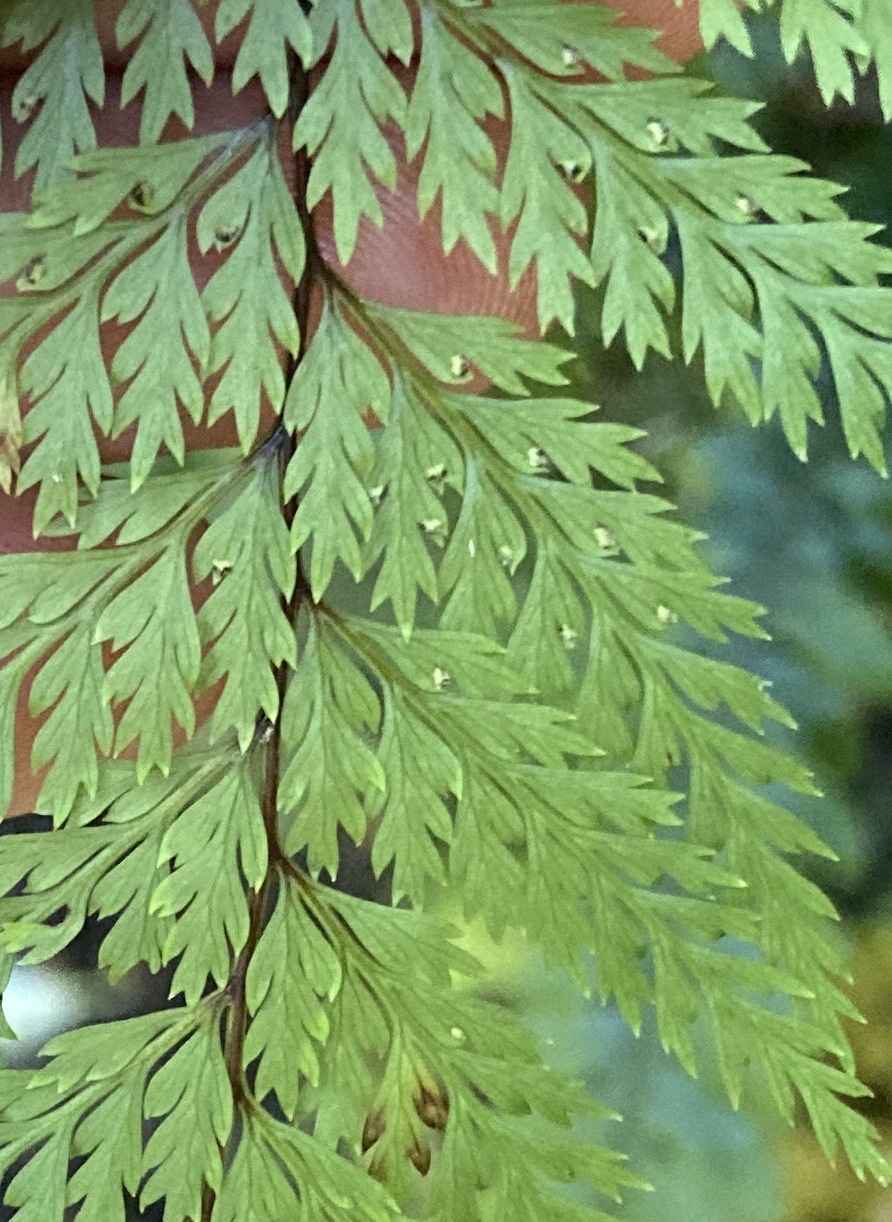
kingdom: Plantae
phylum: Tracheophyta
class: Polypodiopsida
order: Polypodiales
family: Dennstaedtiaceae
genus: Dennstaedtia
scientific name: Dennstaedtia novae-zelandiae
